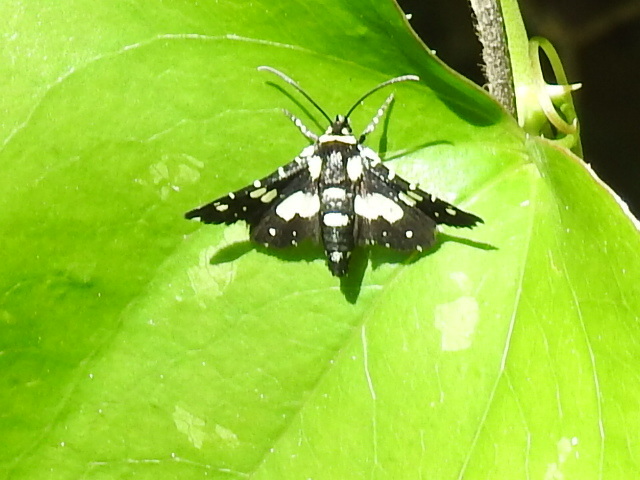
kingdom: Animalia
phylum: Arthropoda
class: Insecta
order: Lepidoptera
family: Thyrididae
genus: Pseudothyris
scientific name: Pseudothyris sepulchralis
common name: Mournful thyris moth
